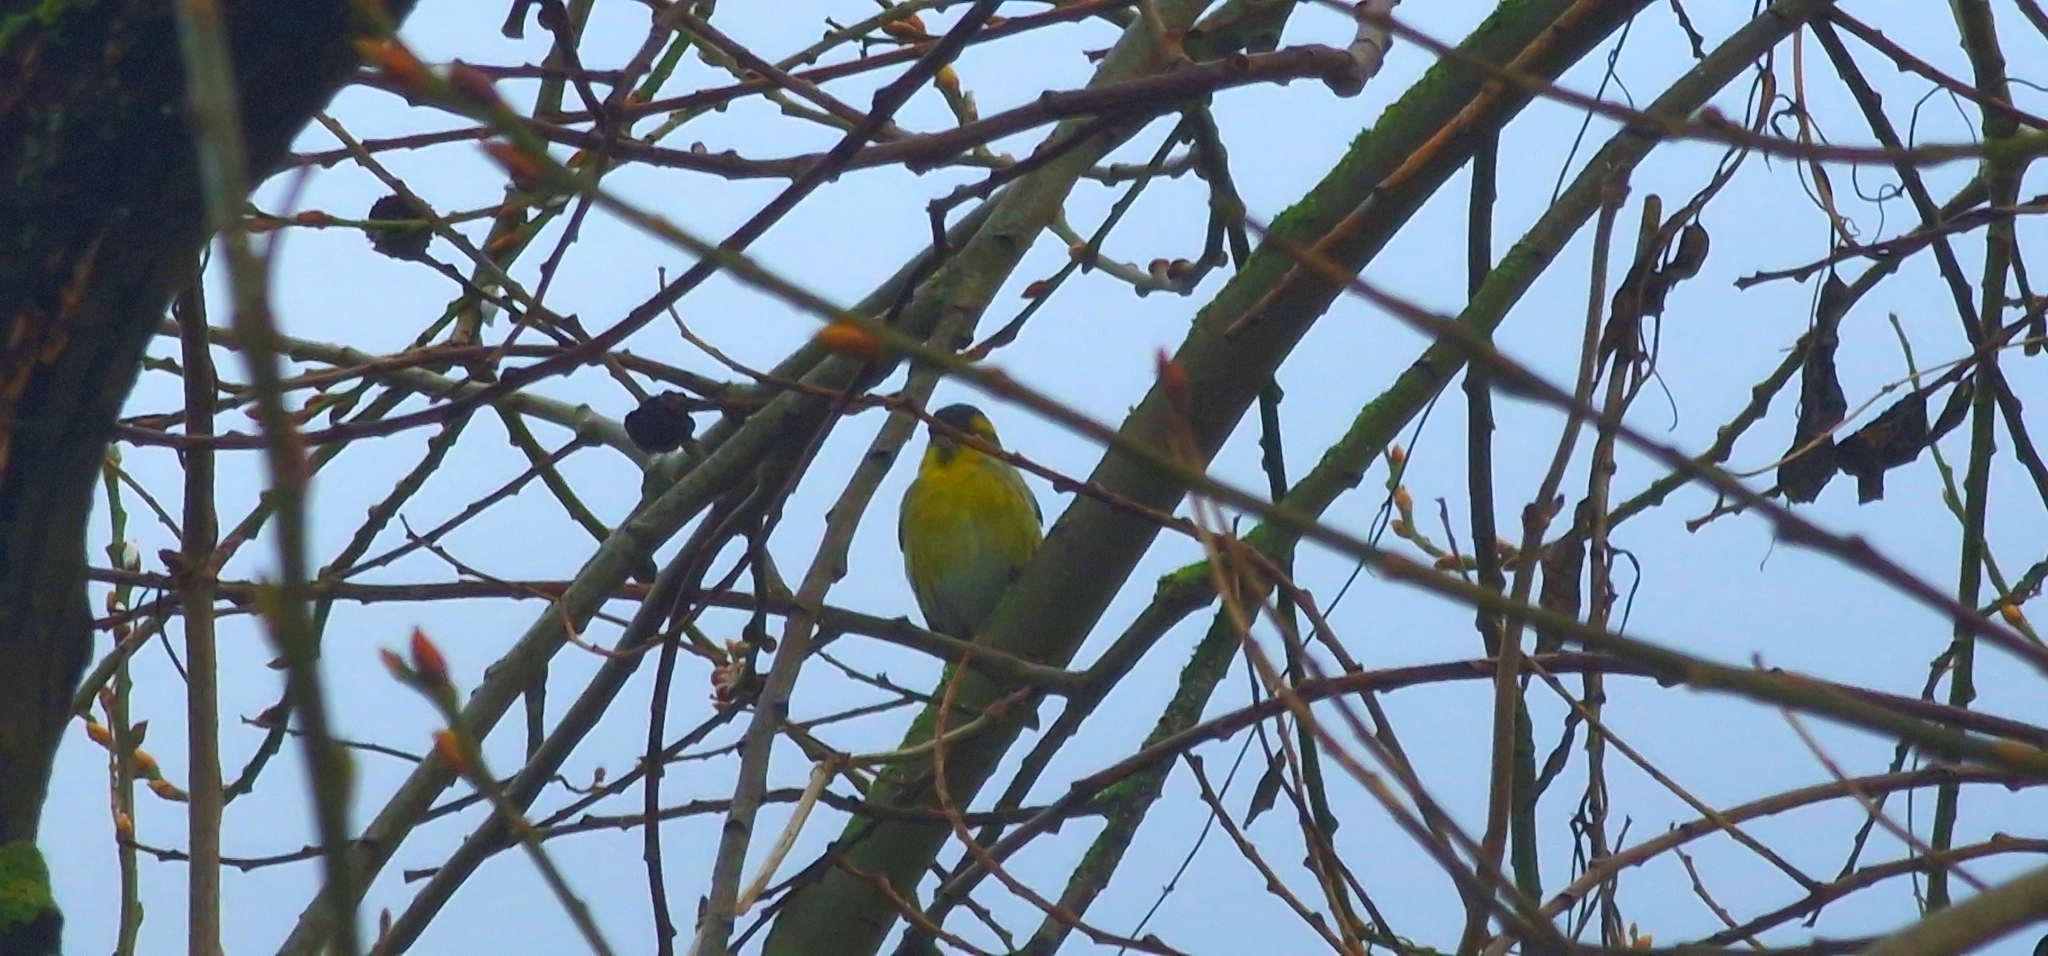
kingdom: Animalia
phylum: Chordata
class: Aves
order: Passeriformes
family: Fringillidae
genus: Spinus
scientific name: Spinus spinus
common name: Eurasian siskin
